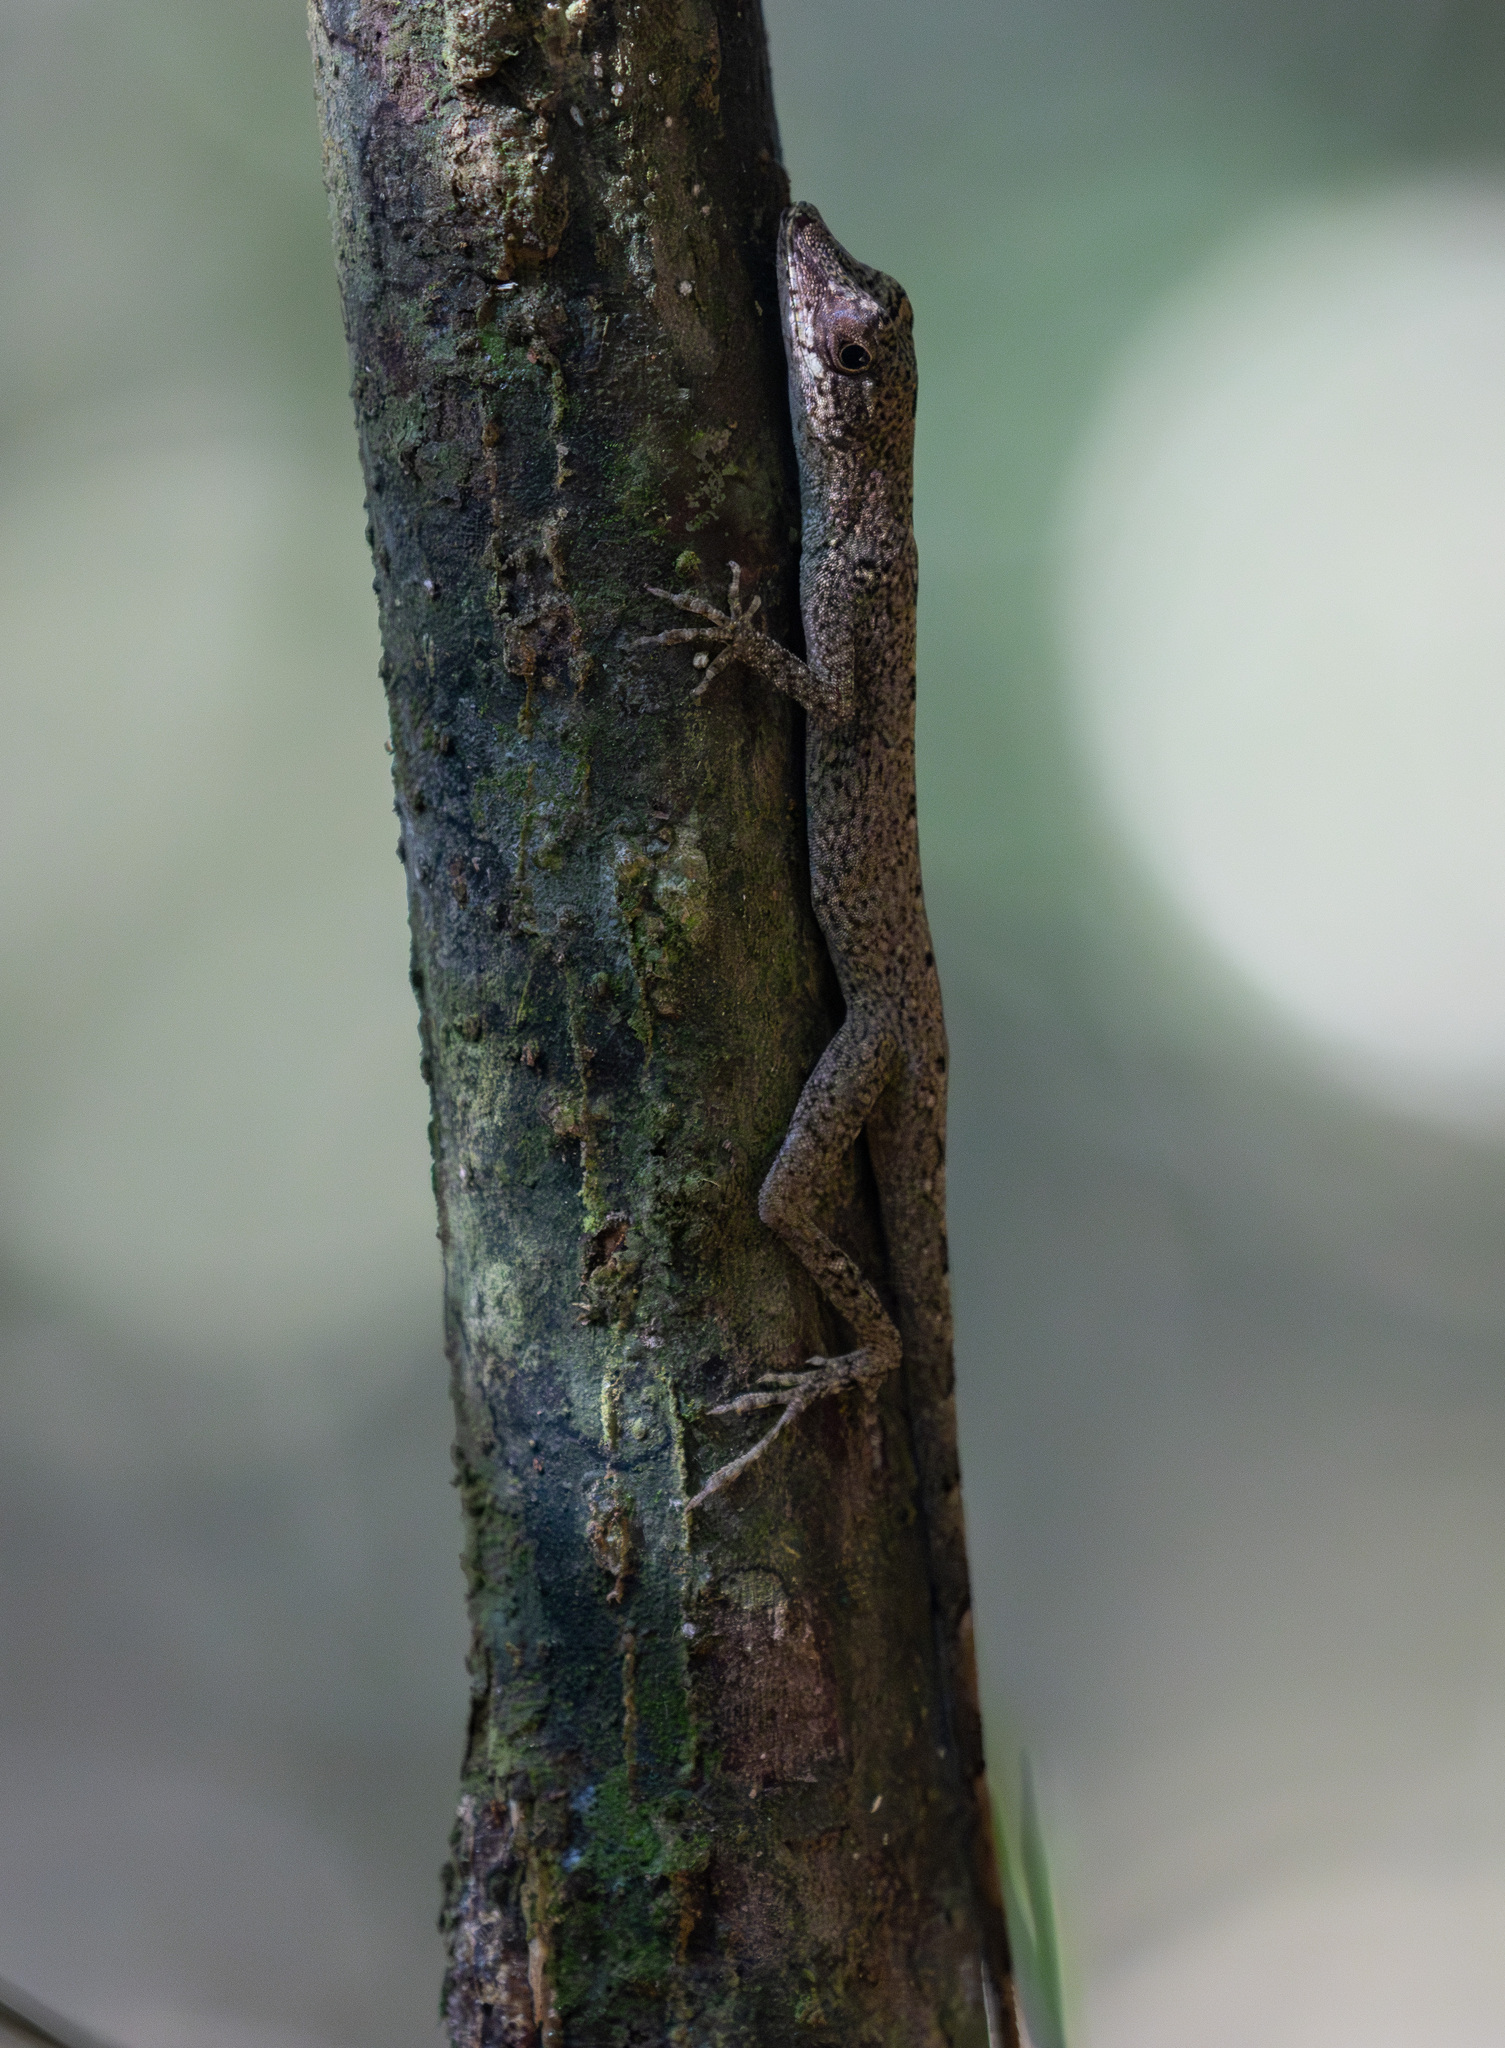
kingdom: Animalia
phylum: Chordata
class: Squamata
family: Dactyloidae
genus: Anolis
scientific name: Anolis fuscoauratus
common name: Brown-eared anole
